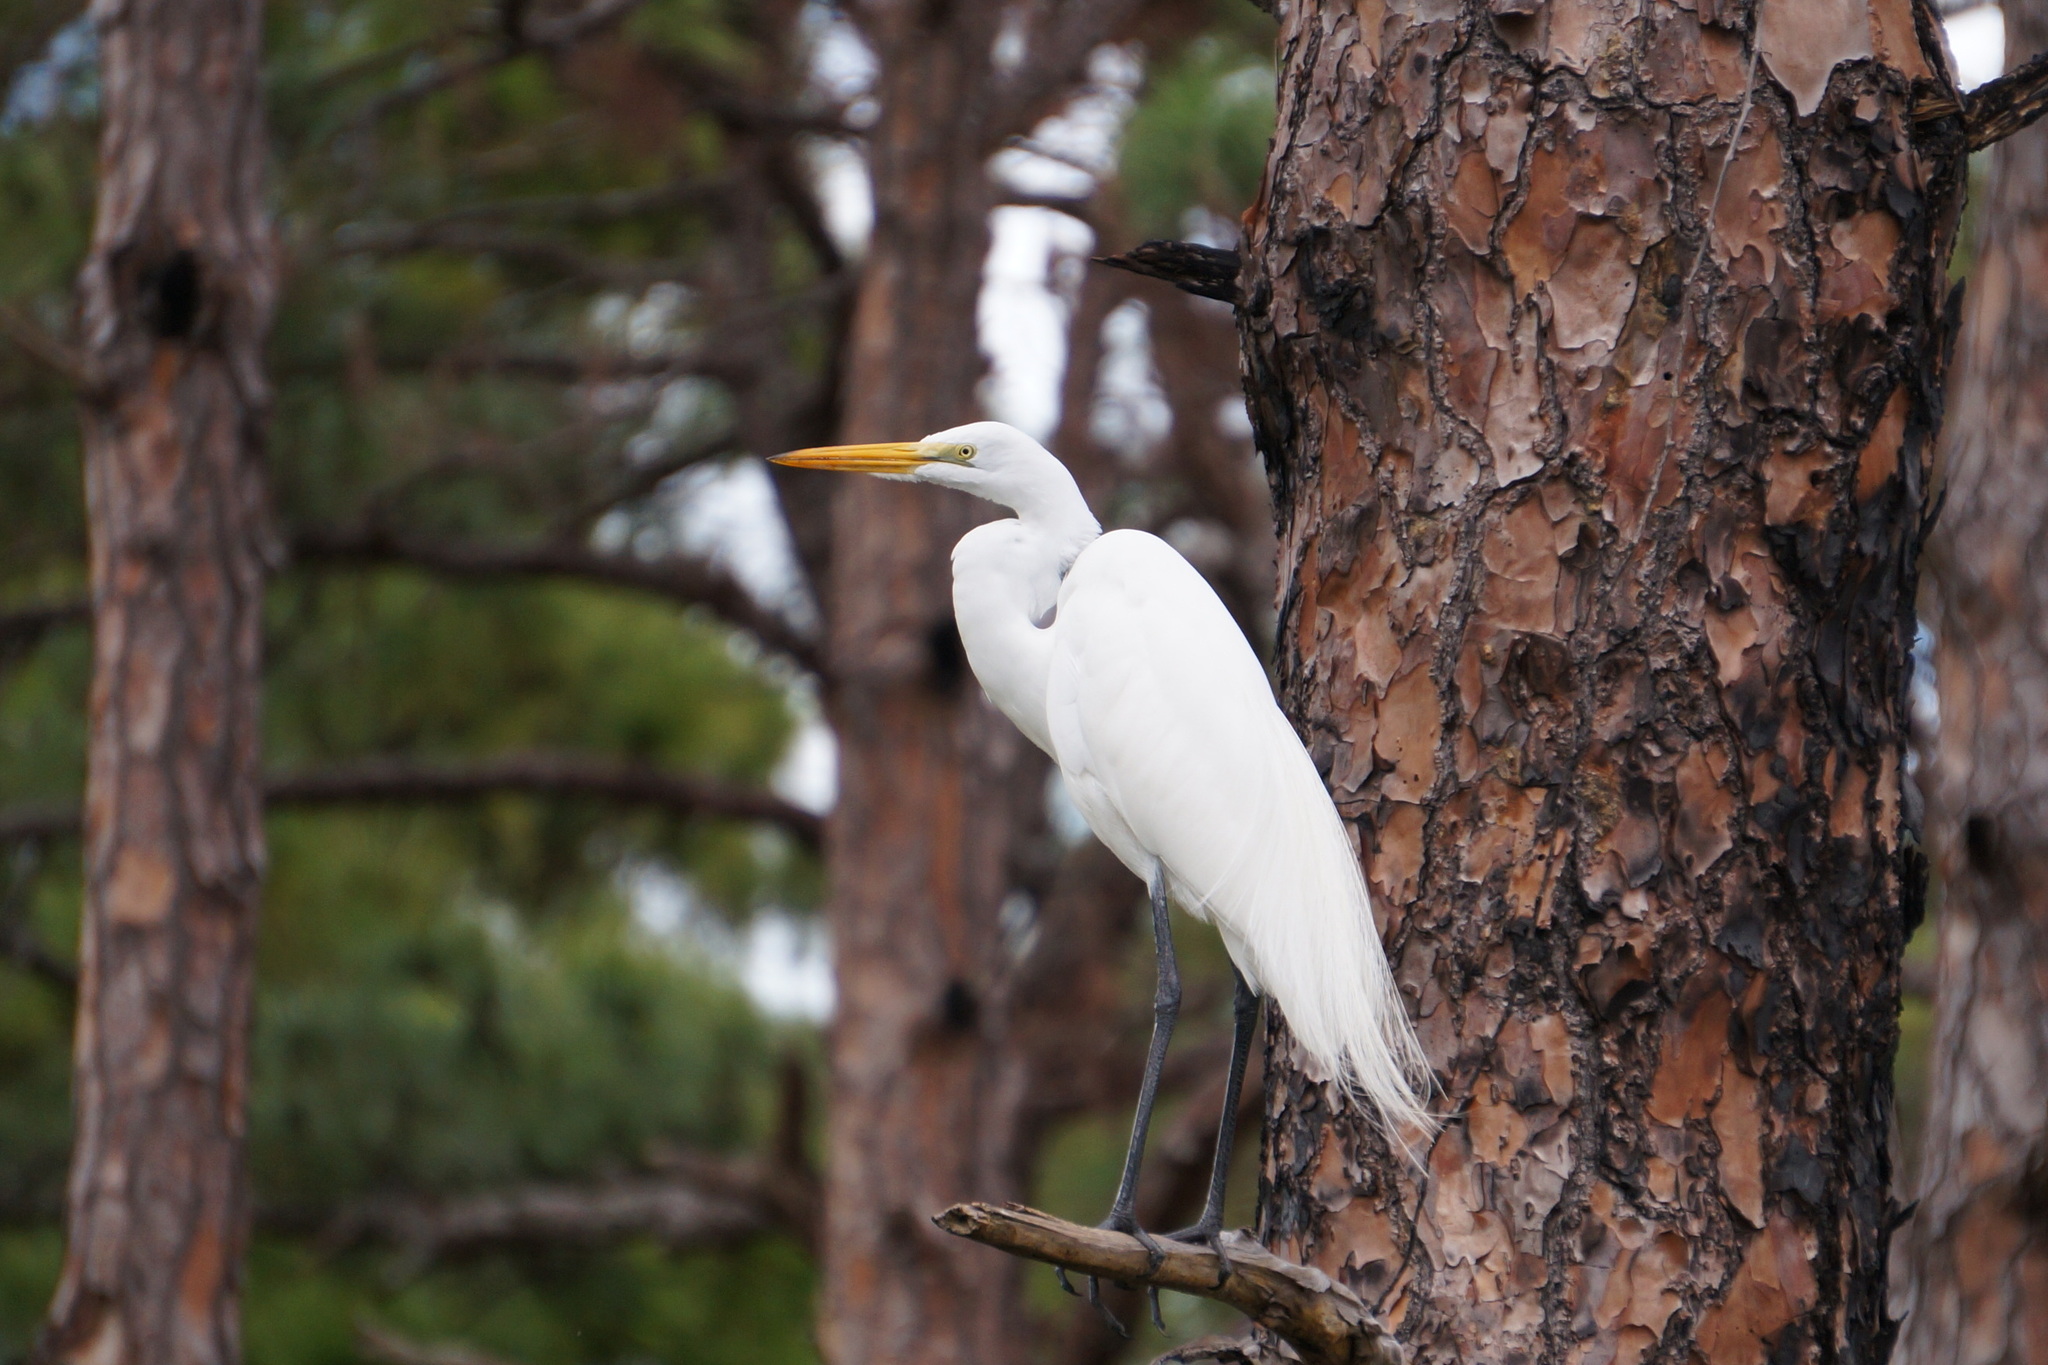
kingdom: Animalia
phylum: Chordata
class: Aves
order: Pelecaniformes
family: Ardeidae
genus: Ardea
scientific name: Ardea alba
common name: Great egret
